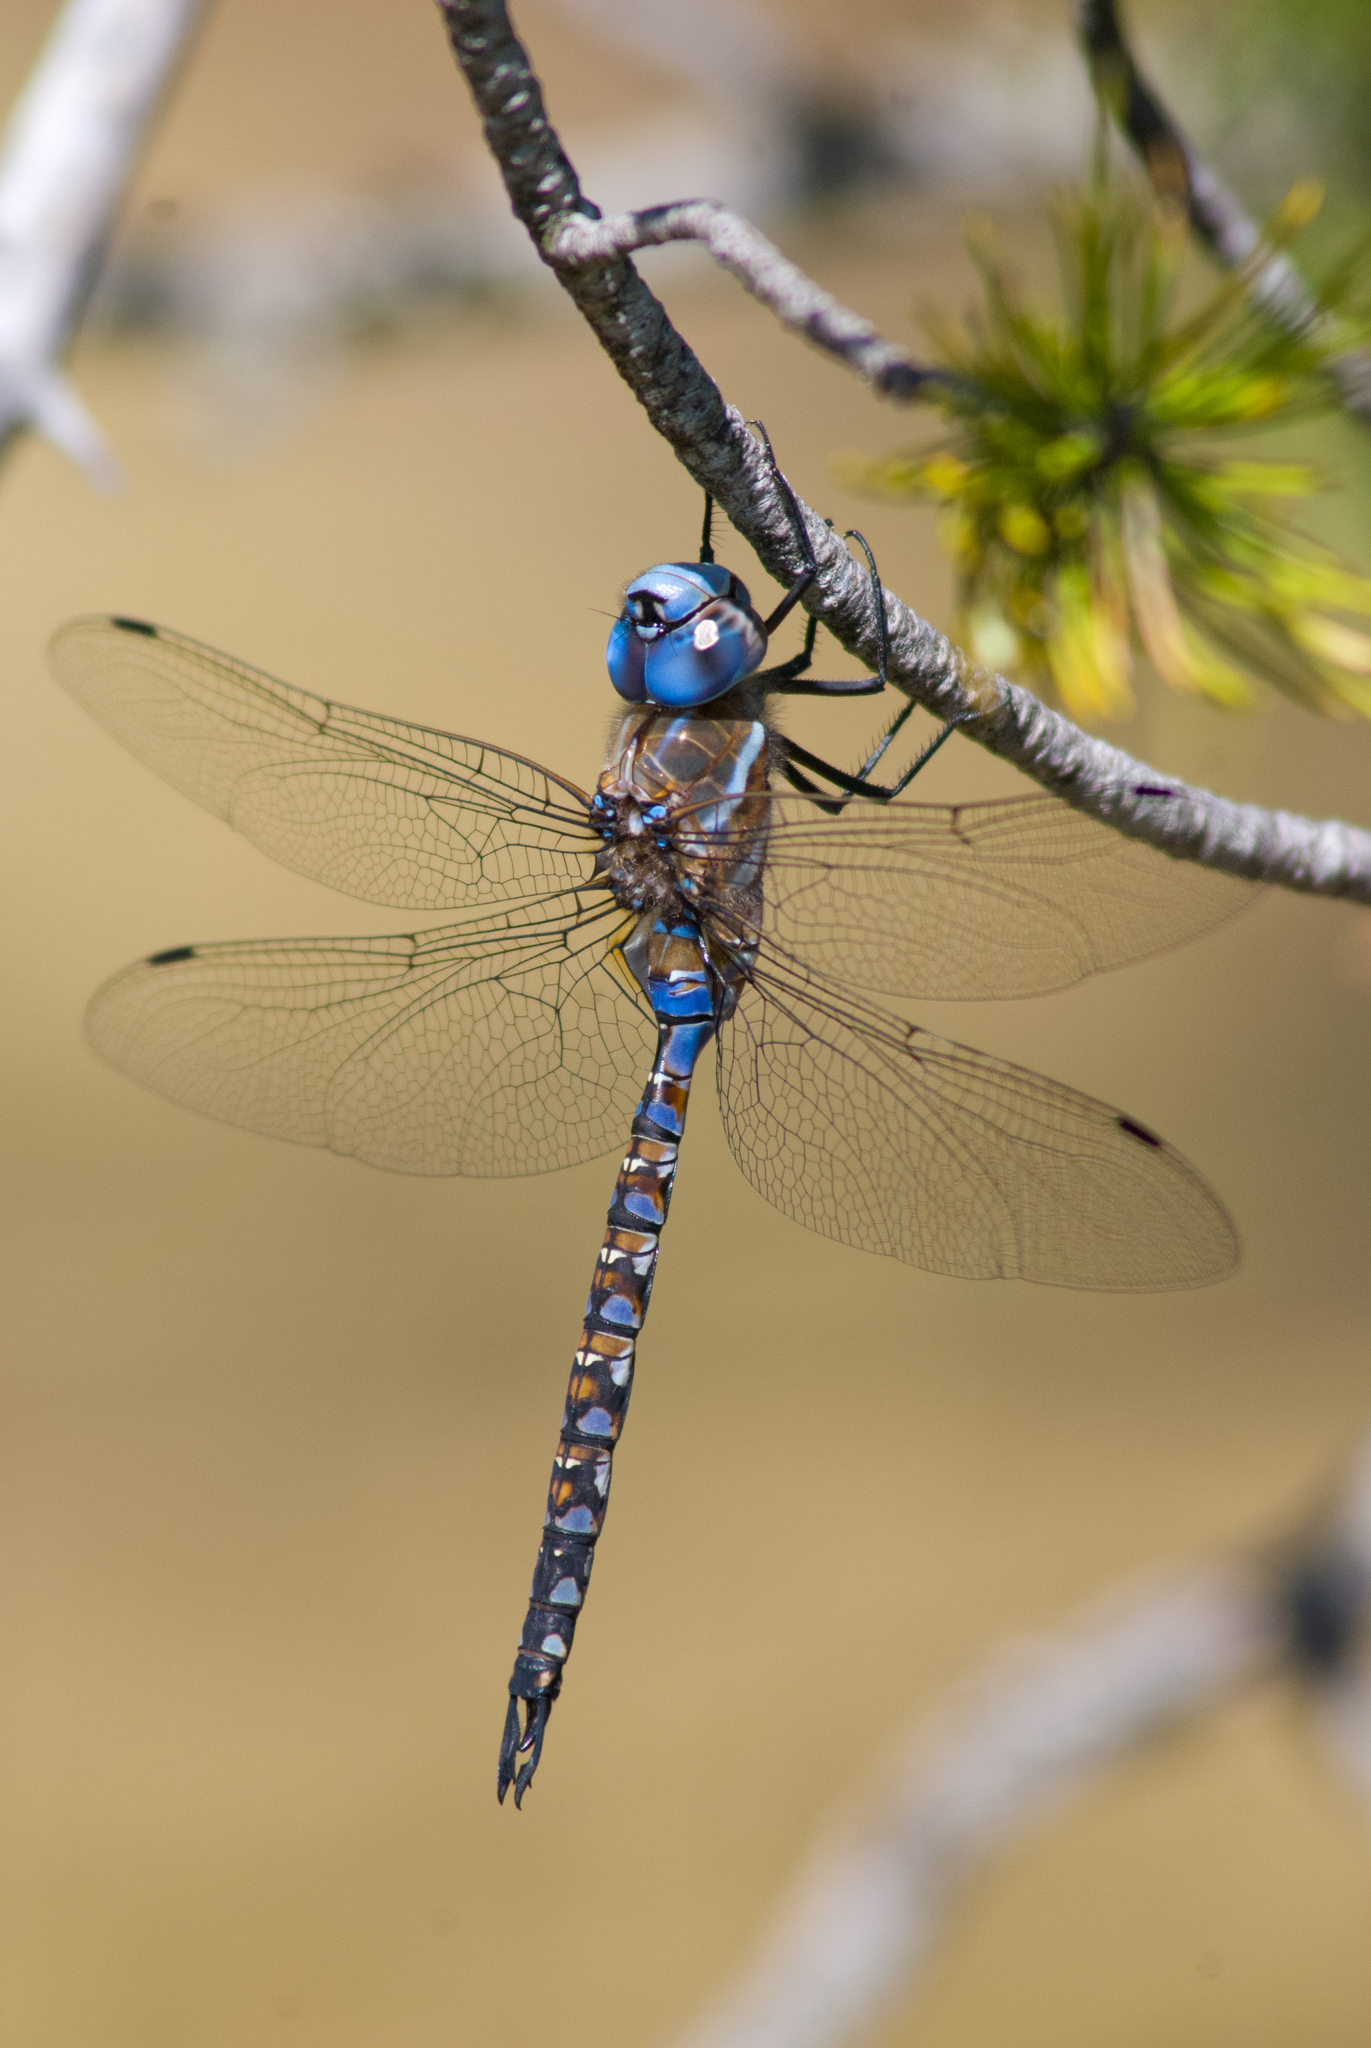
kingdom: Animalia
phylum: Arthropoda
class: Insecta
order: Odonata
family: Aeshnidae
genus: Rhionaeschna
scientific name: Rhionaeschna multicolor
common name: Blue-eyed darner
